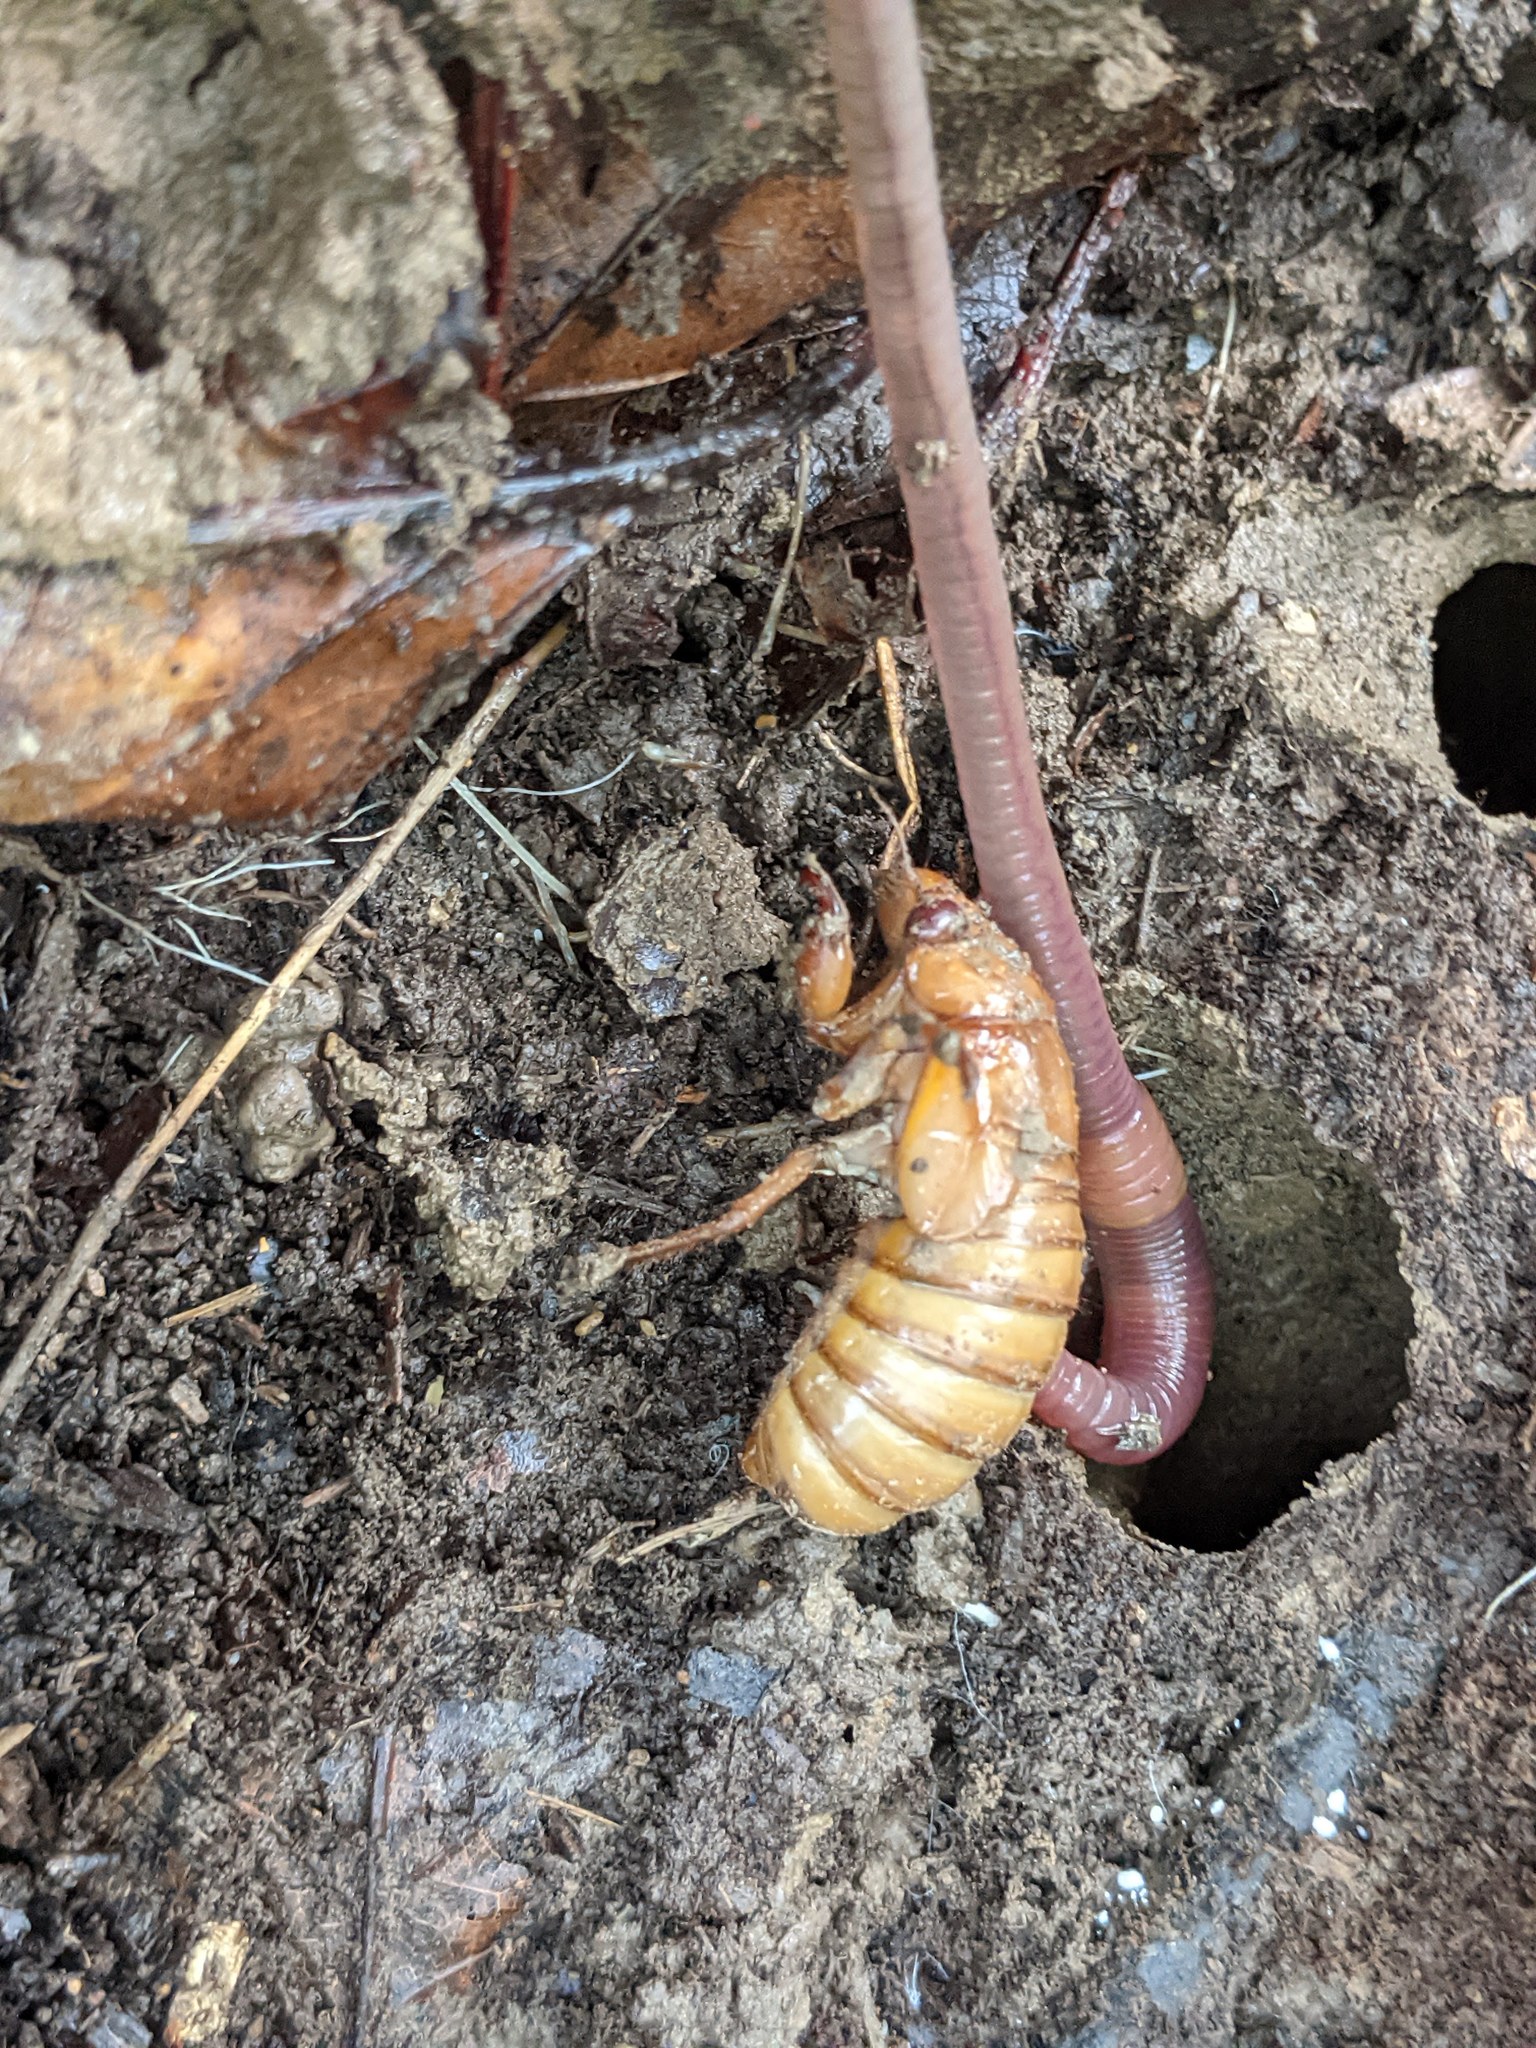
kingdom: Animalia
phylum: Arthropoda
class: Insecta
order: Hemiptera
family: Cicadidae
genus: Magicicada
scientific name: Magicicada
